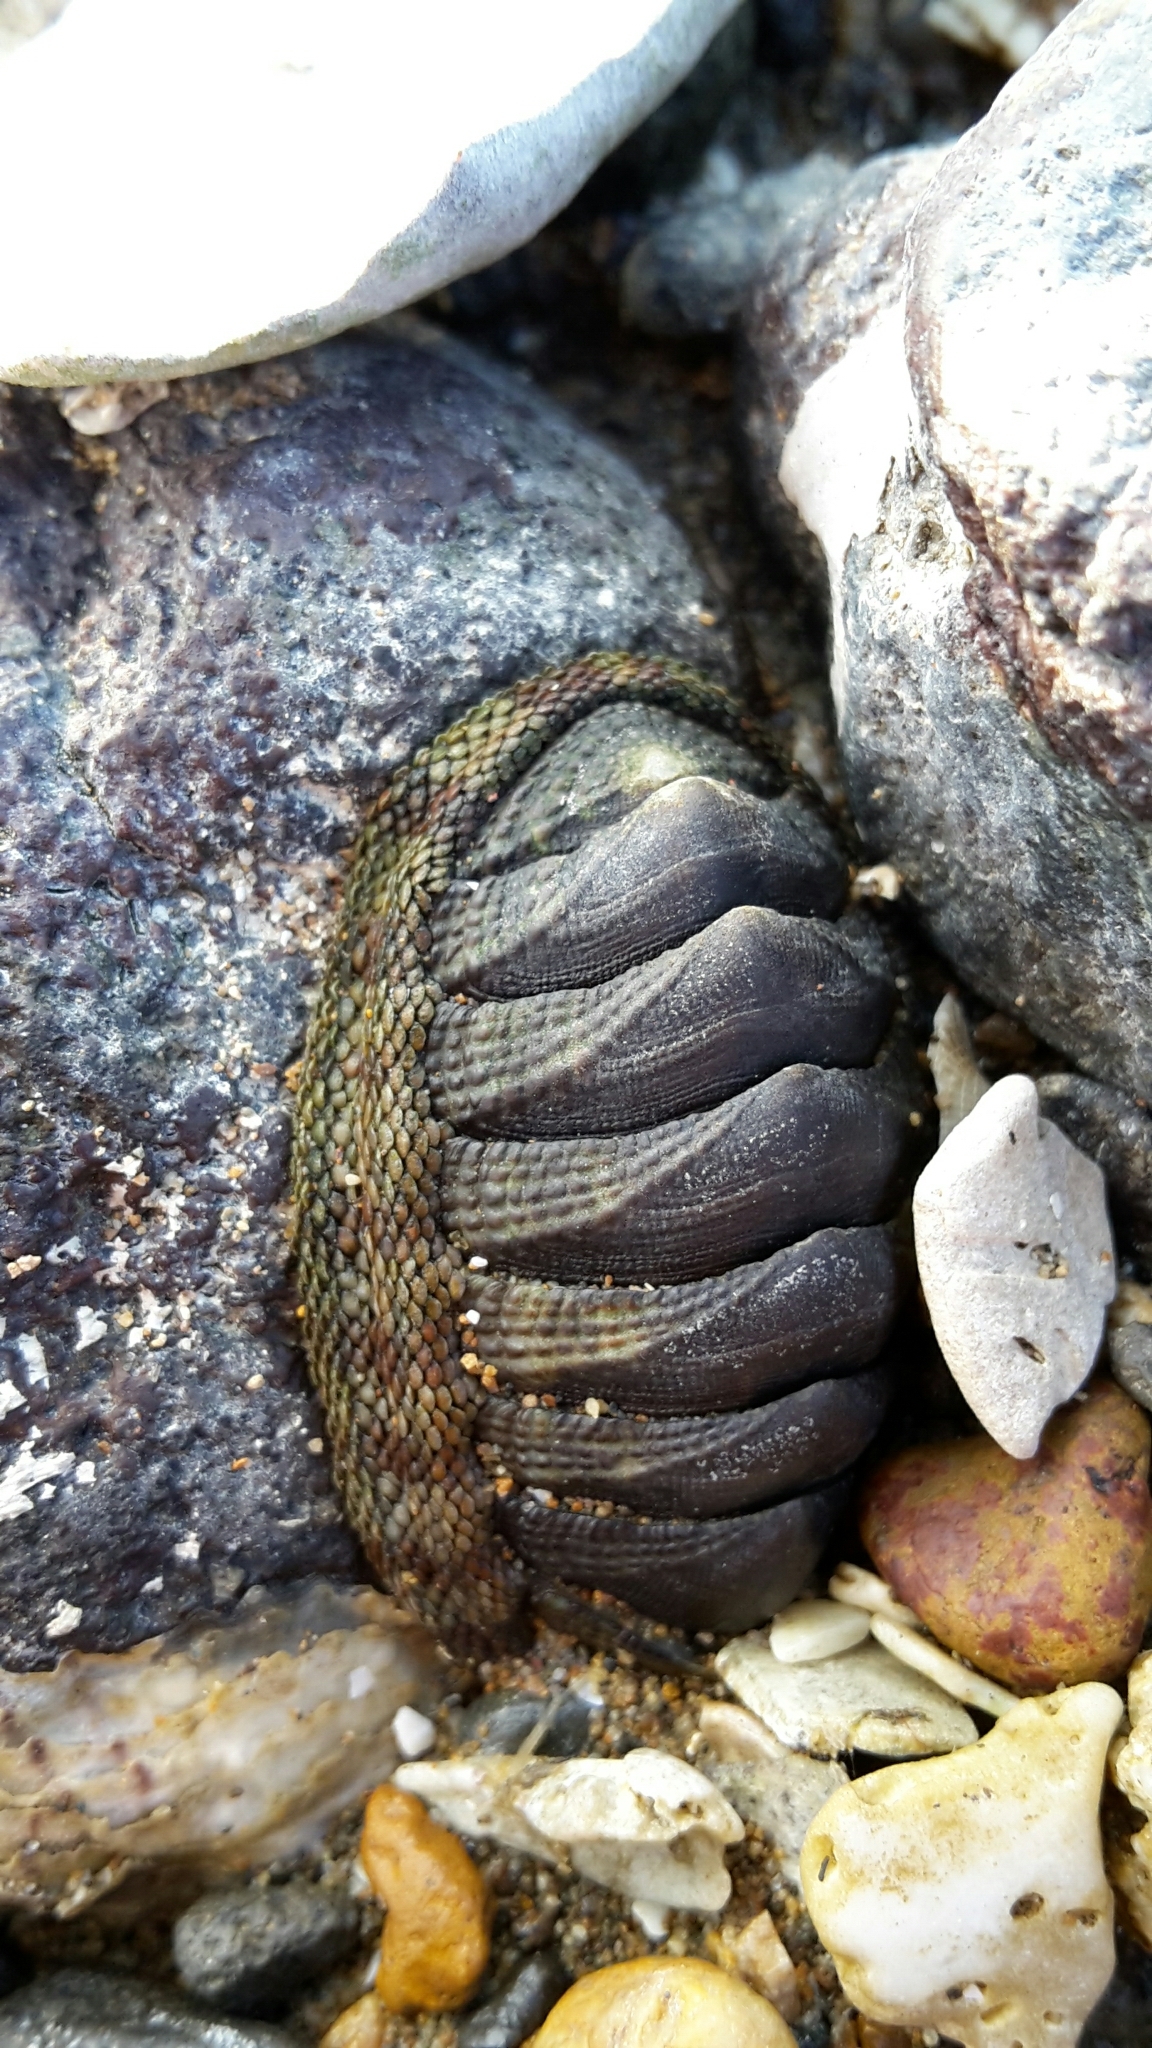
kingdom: Animalia
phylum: Mollusca
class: Polyplacophora
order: Chitonida
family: Chitonidae
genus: Sypharochiton
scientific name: Sypharochiton pelliserpentis
